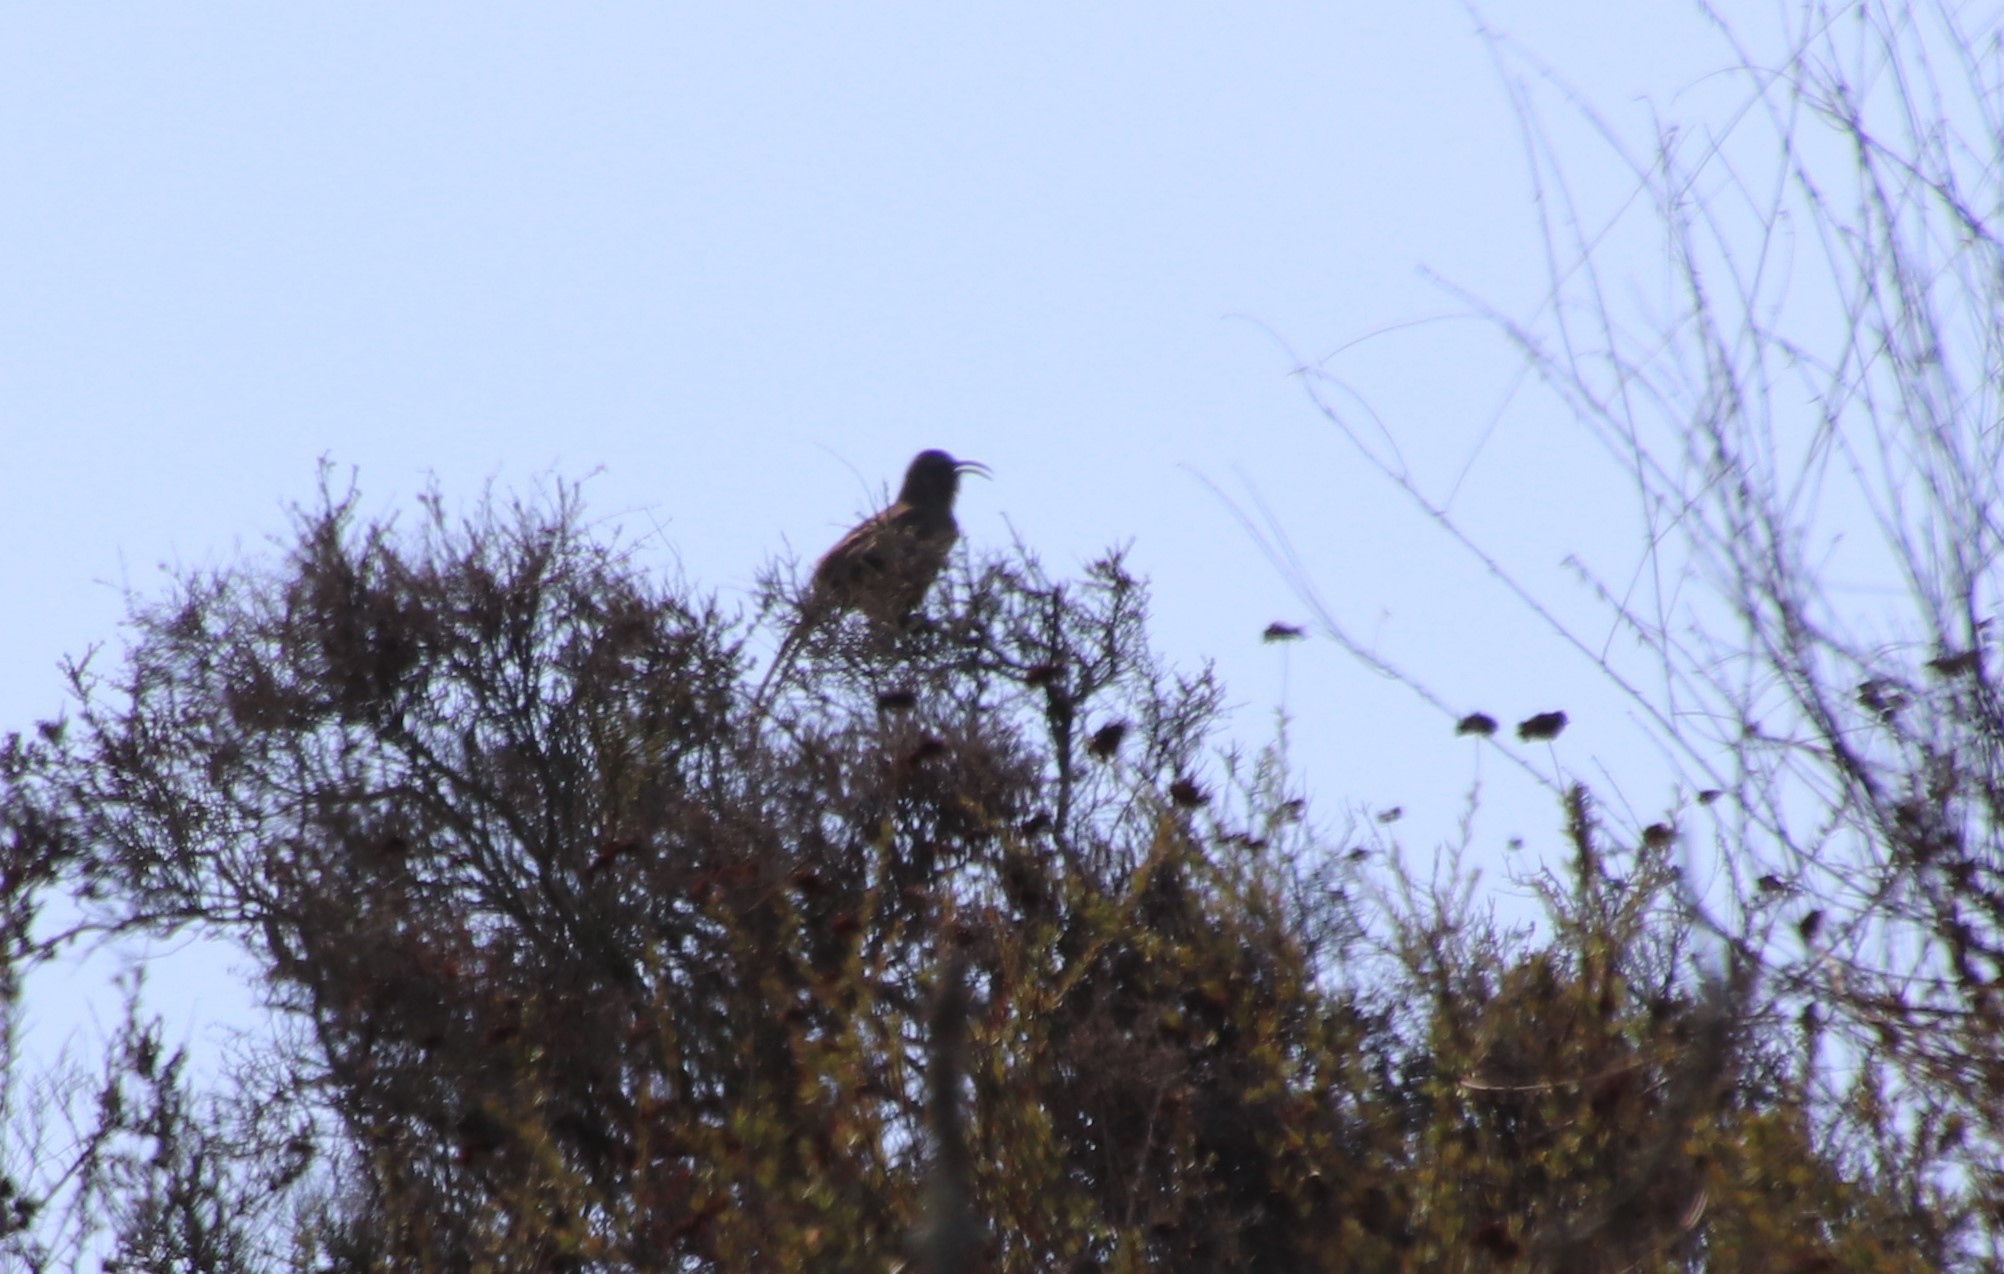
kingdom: Animalia
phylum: Chordata
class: Aves
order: Passeriformes
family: Mimidae
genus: Toxostoma
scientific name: Toxostoma redivivum
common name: California thrasher
